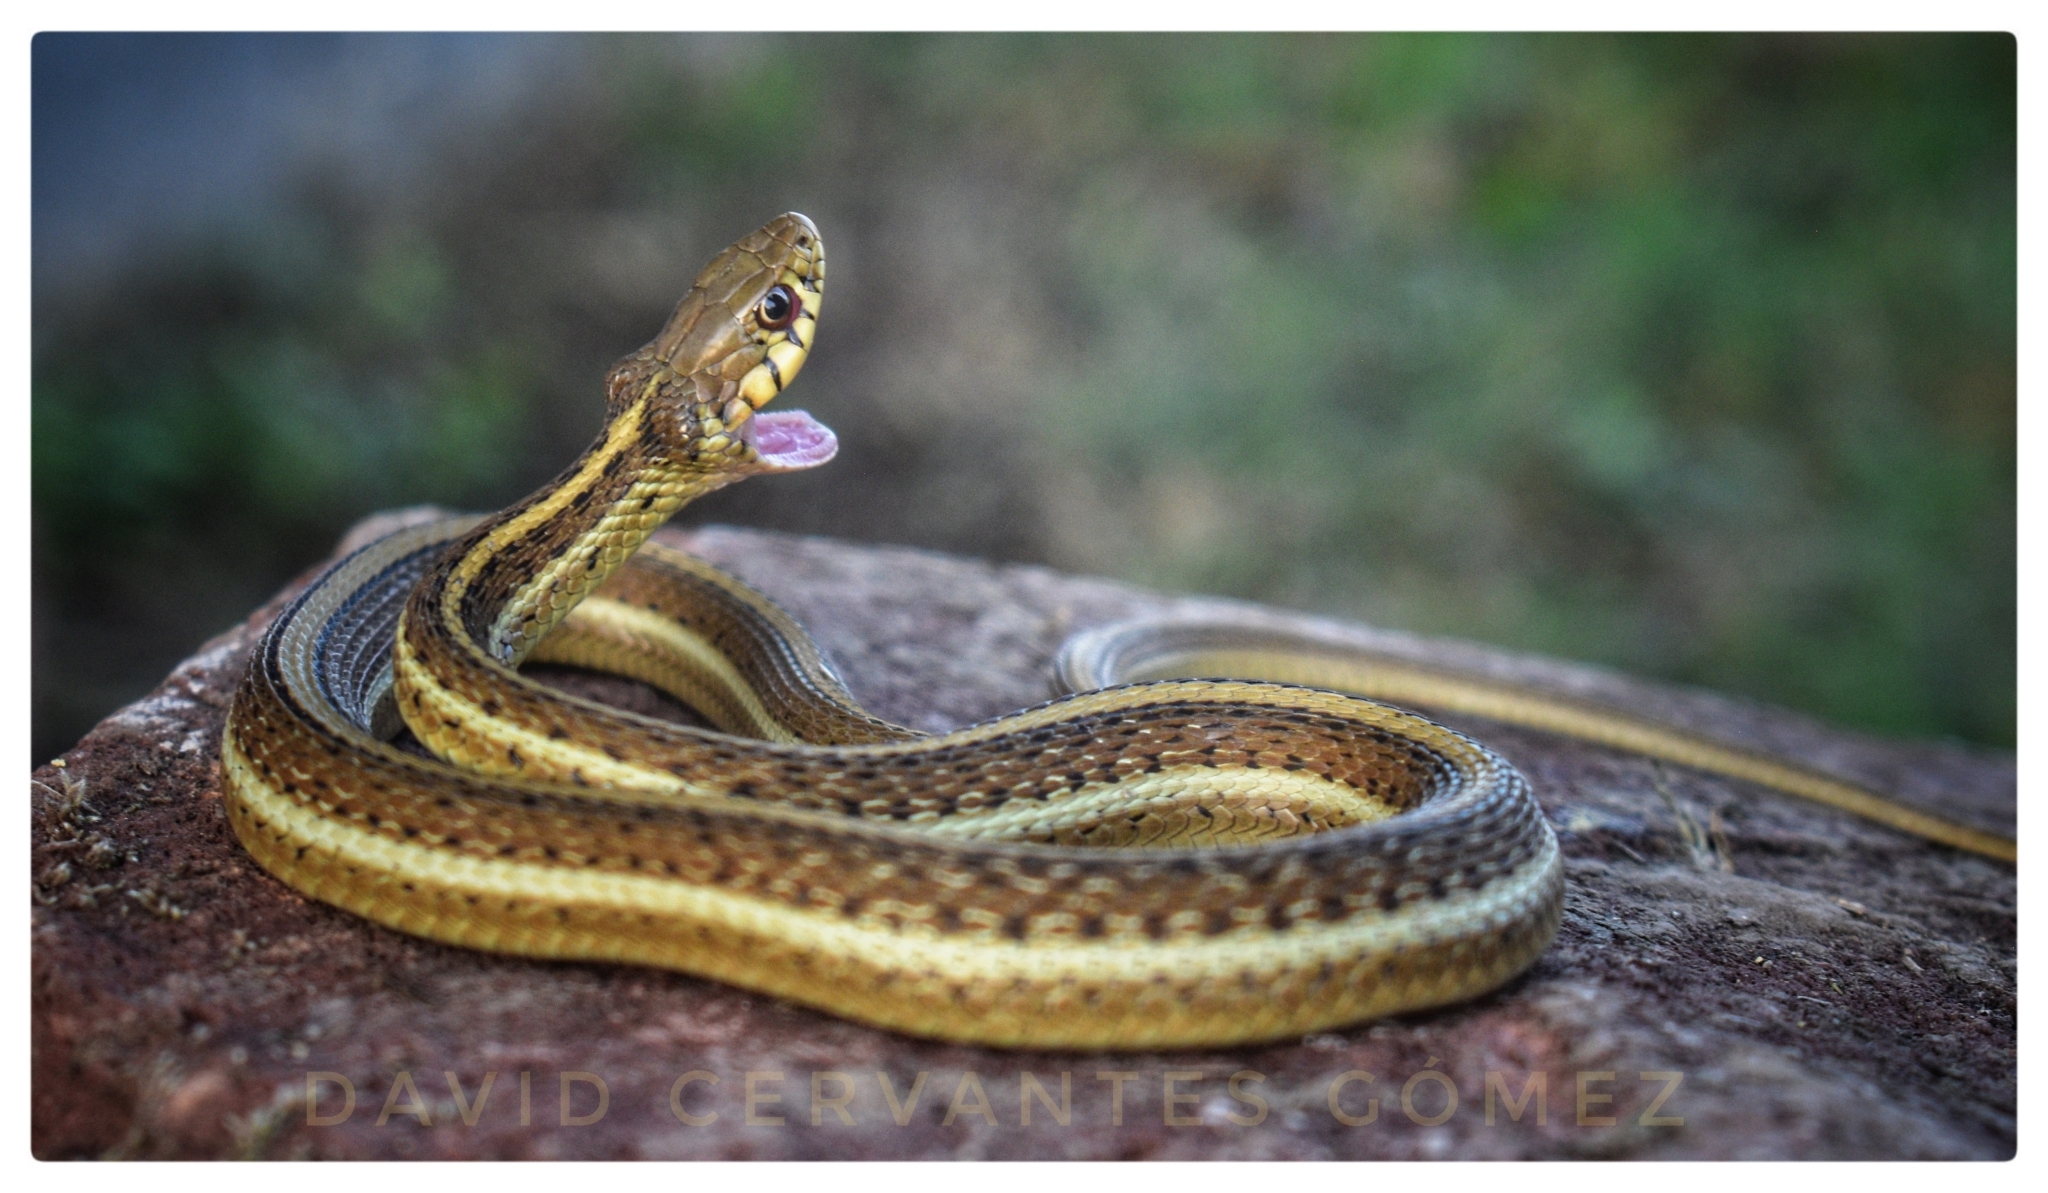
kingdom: Animalia
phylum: Chordata
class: Squamata
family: Colubridae
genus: Thamnophis
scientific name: Thamnophis rossmani
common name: Rossman's garter snake
